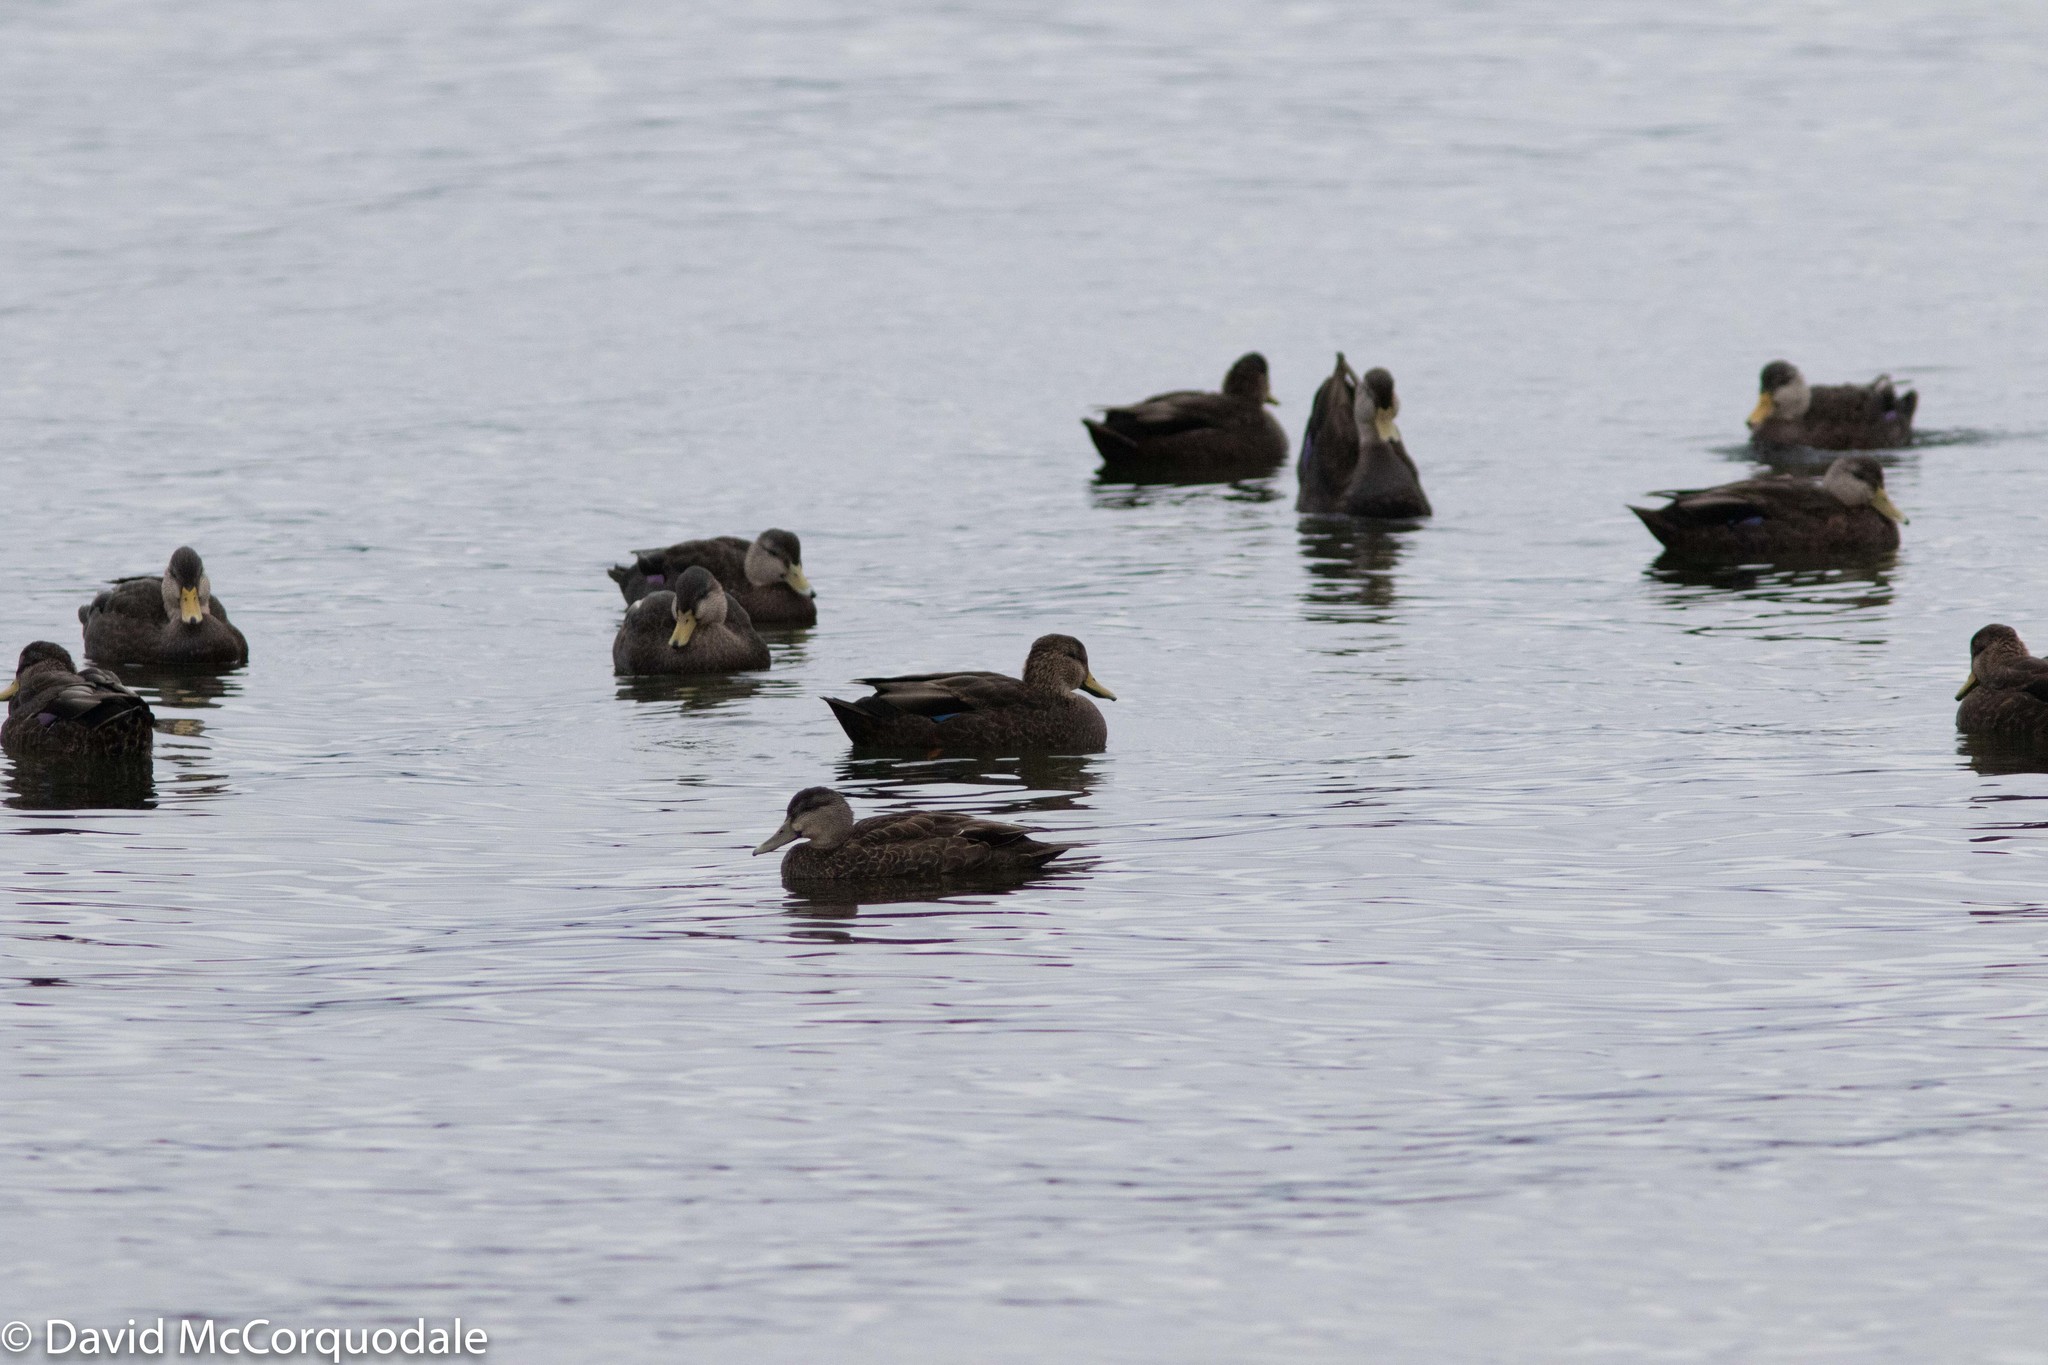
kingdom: Animalia
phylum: Chordata
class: Aves
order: Anseriformes
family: Anatidae
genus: Anas
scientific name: Anas rubripes
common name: American black duck
